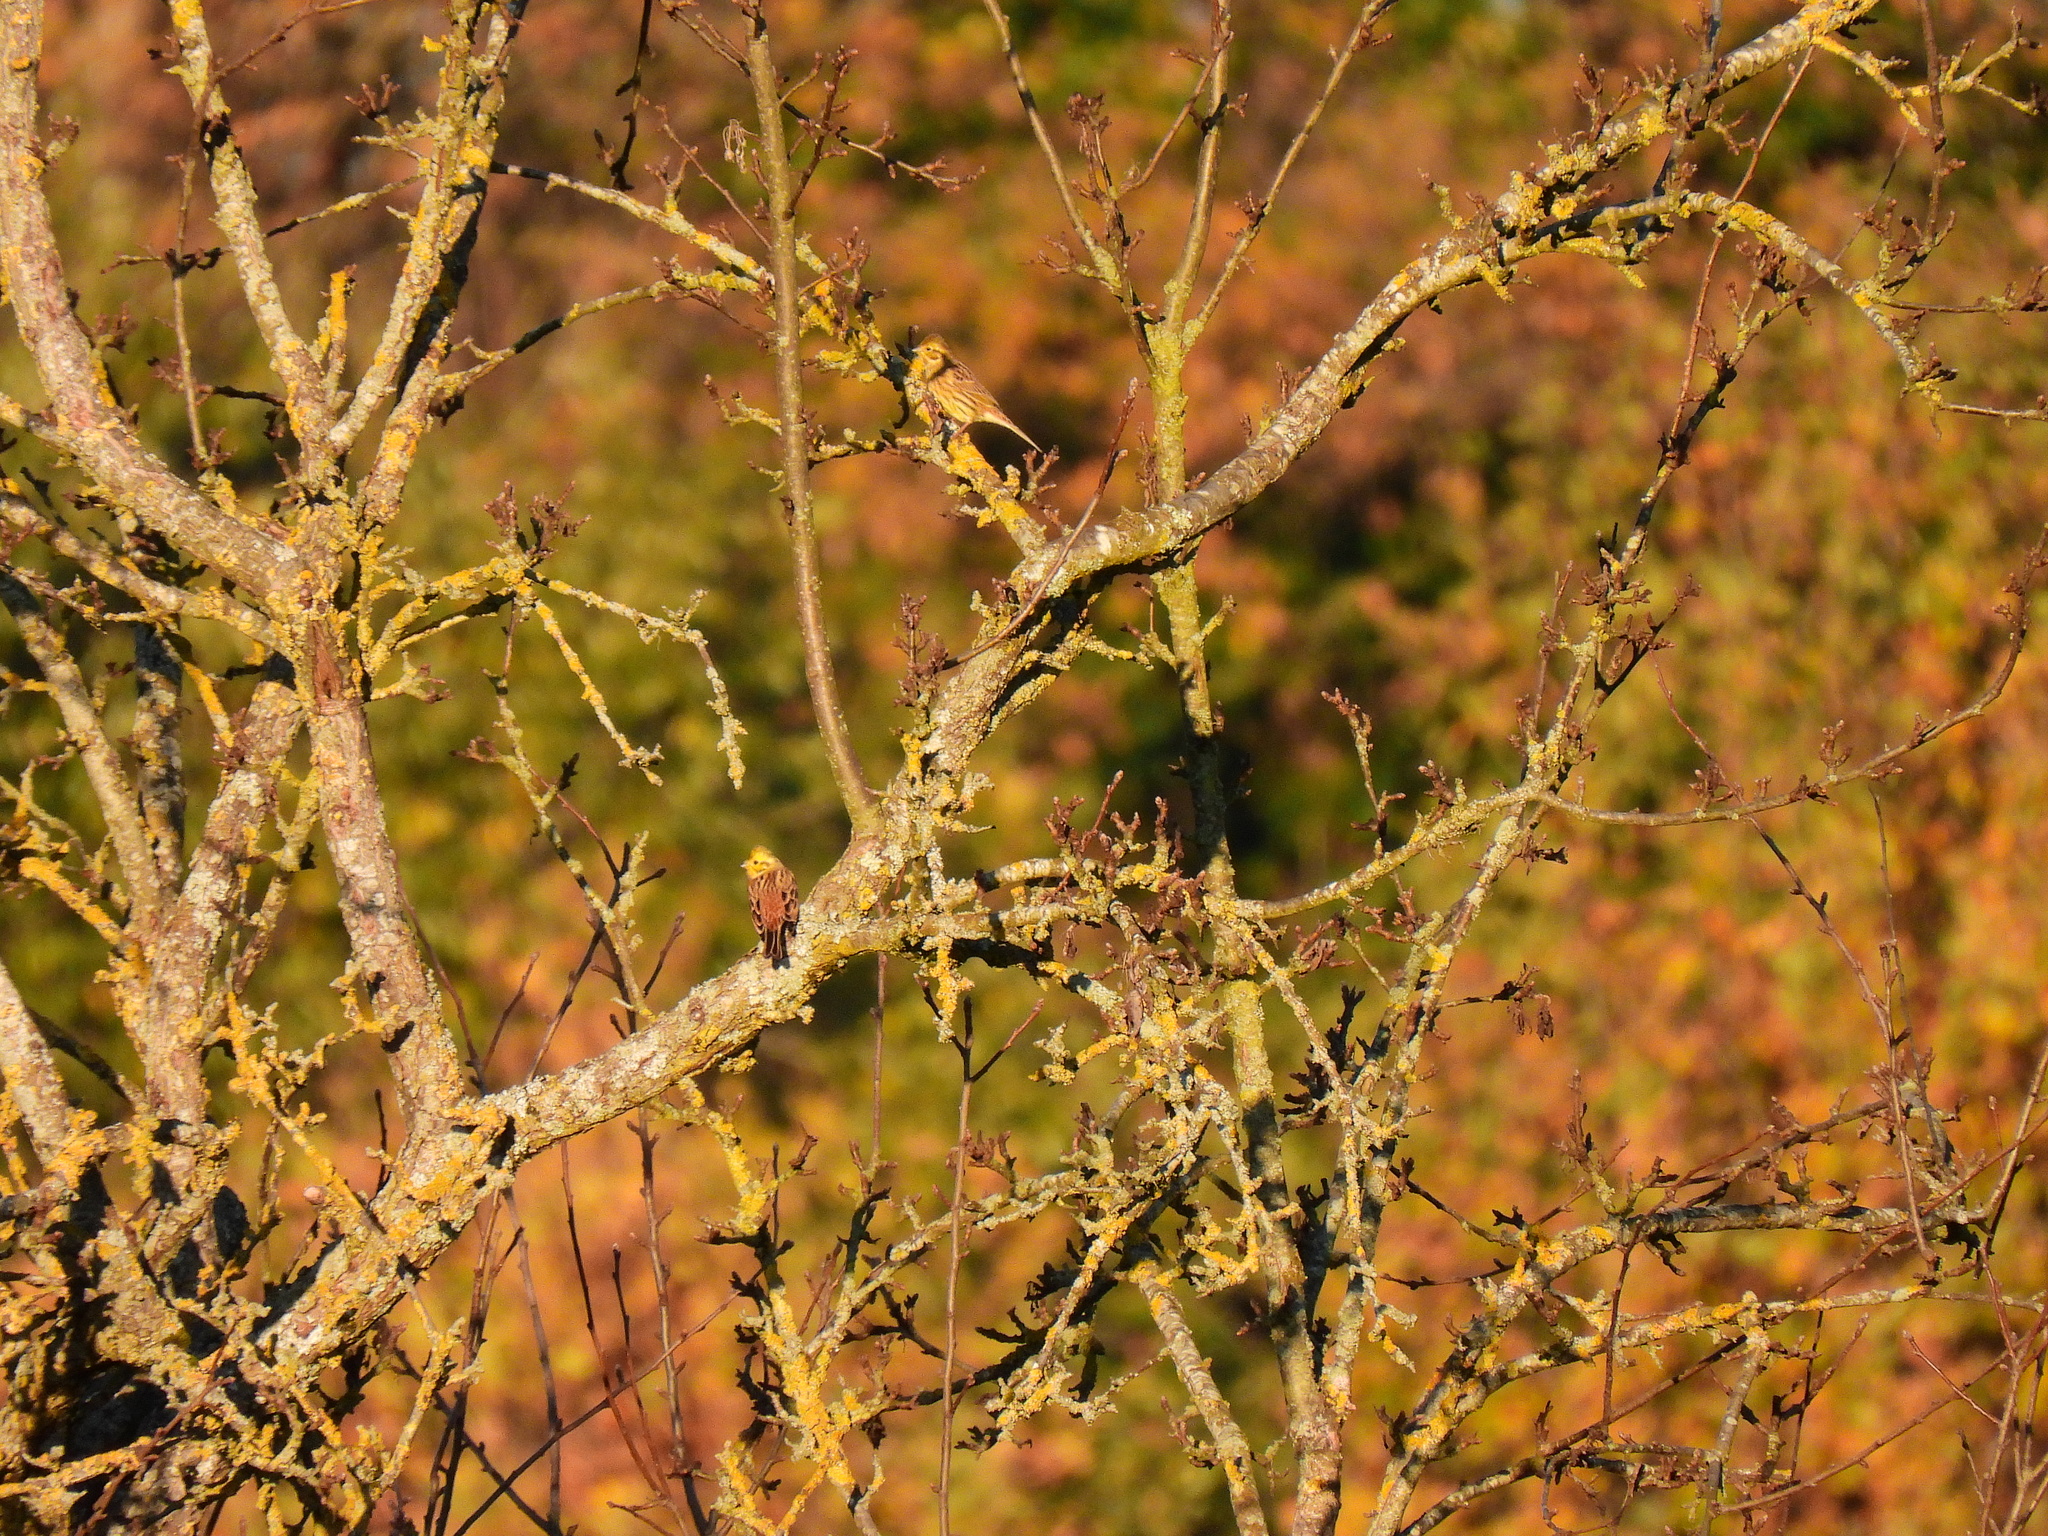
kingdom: Animalia
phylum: Chordata
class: Aves
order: Passeriformes
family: Emberizidae
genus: Emberiza
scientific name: Emberiza citrinella
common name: Yellowhammer
